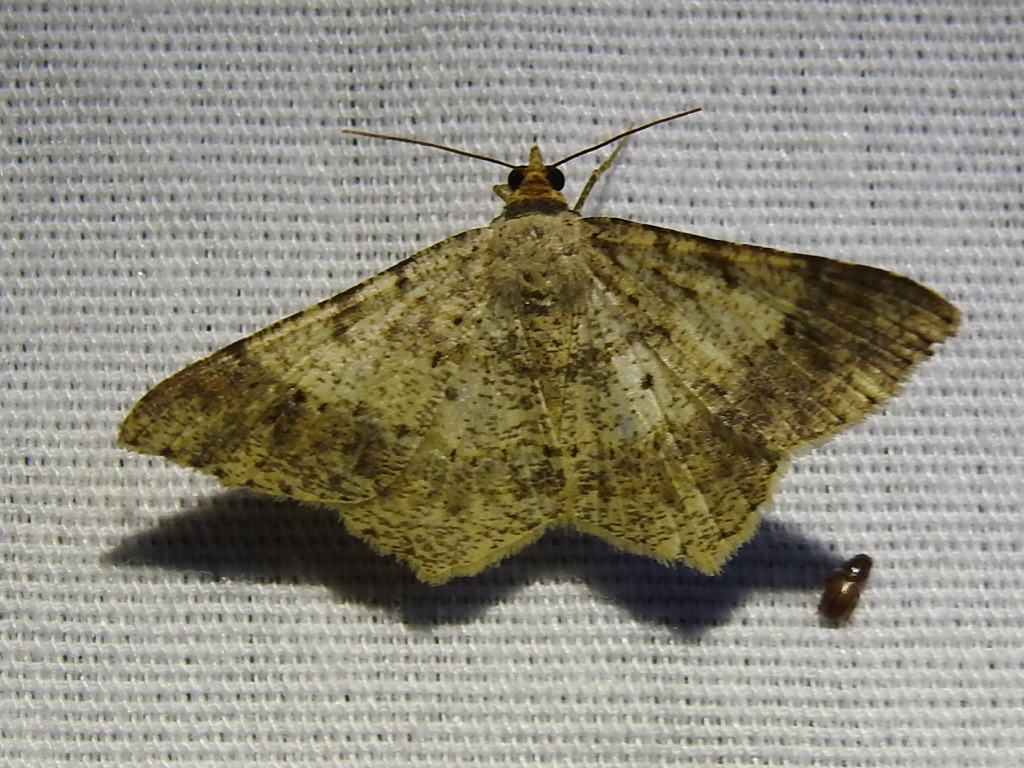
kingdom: Animalia
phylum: Arthropoda
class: Insecta
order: Lepidoptera
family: Geometridae
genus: Macaria
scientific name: Macaria abydata
